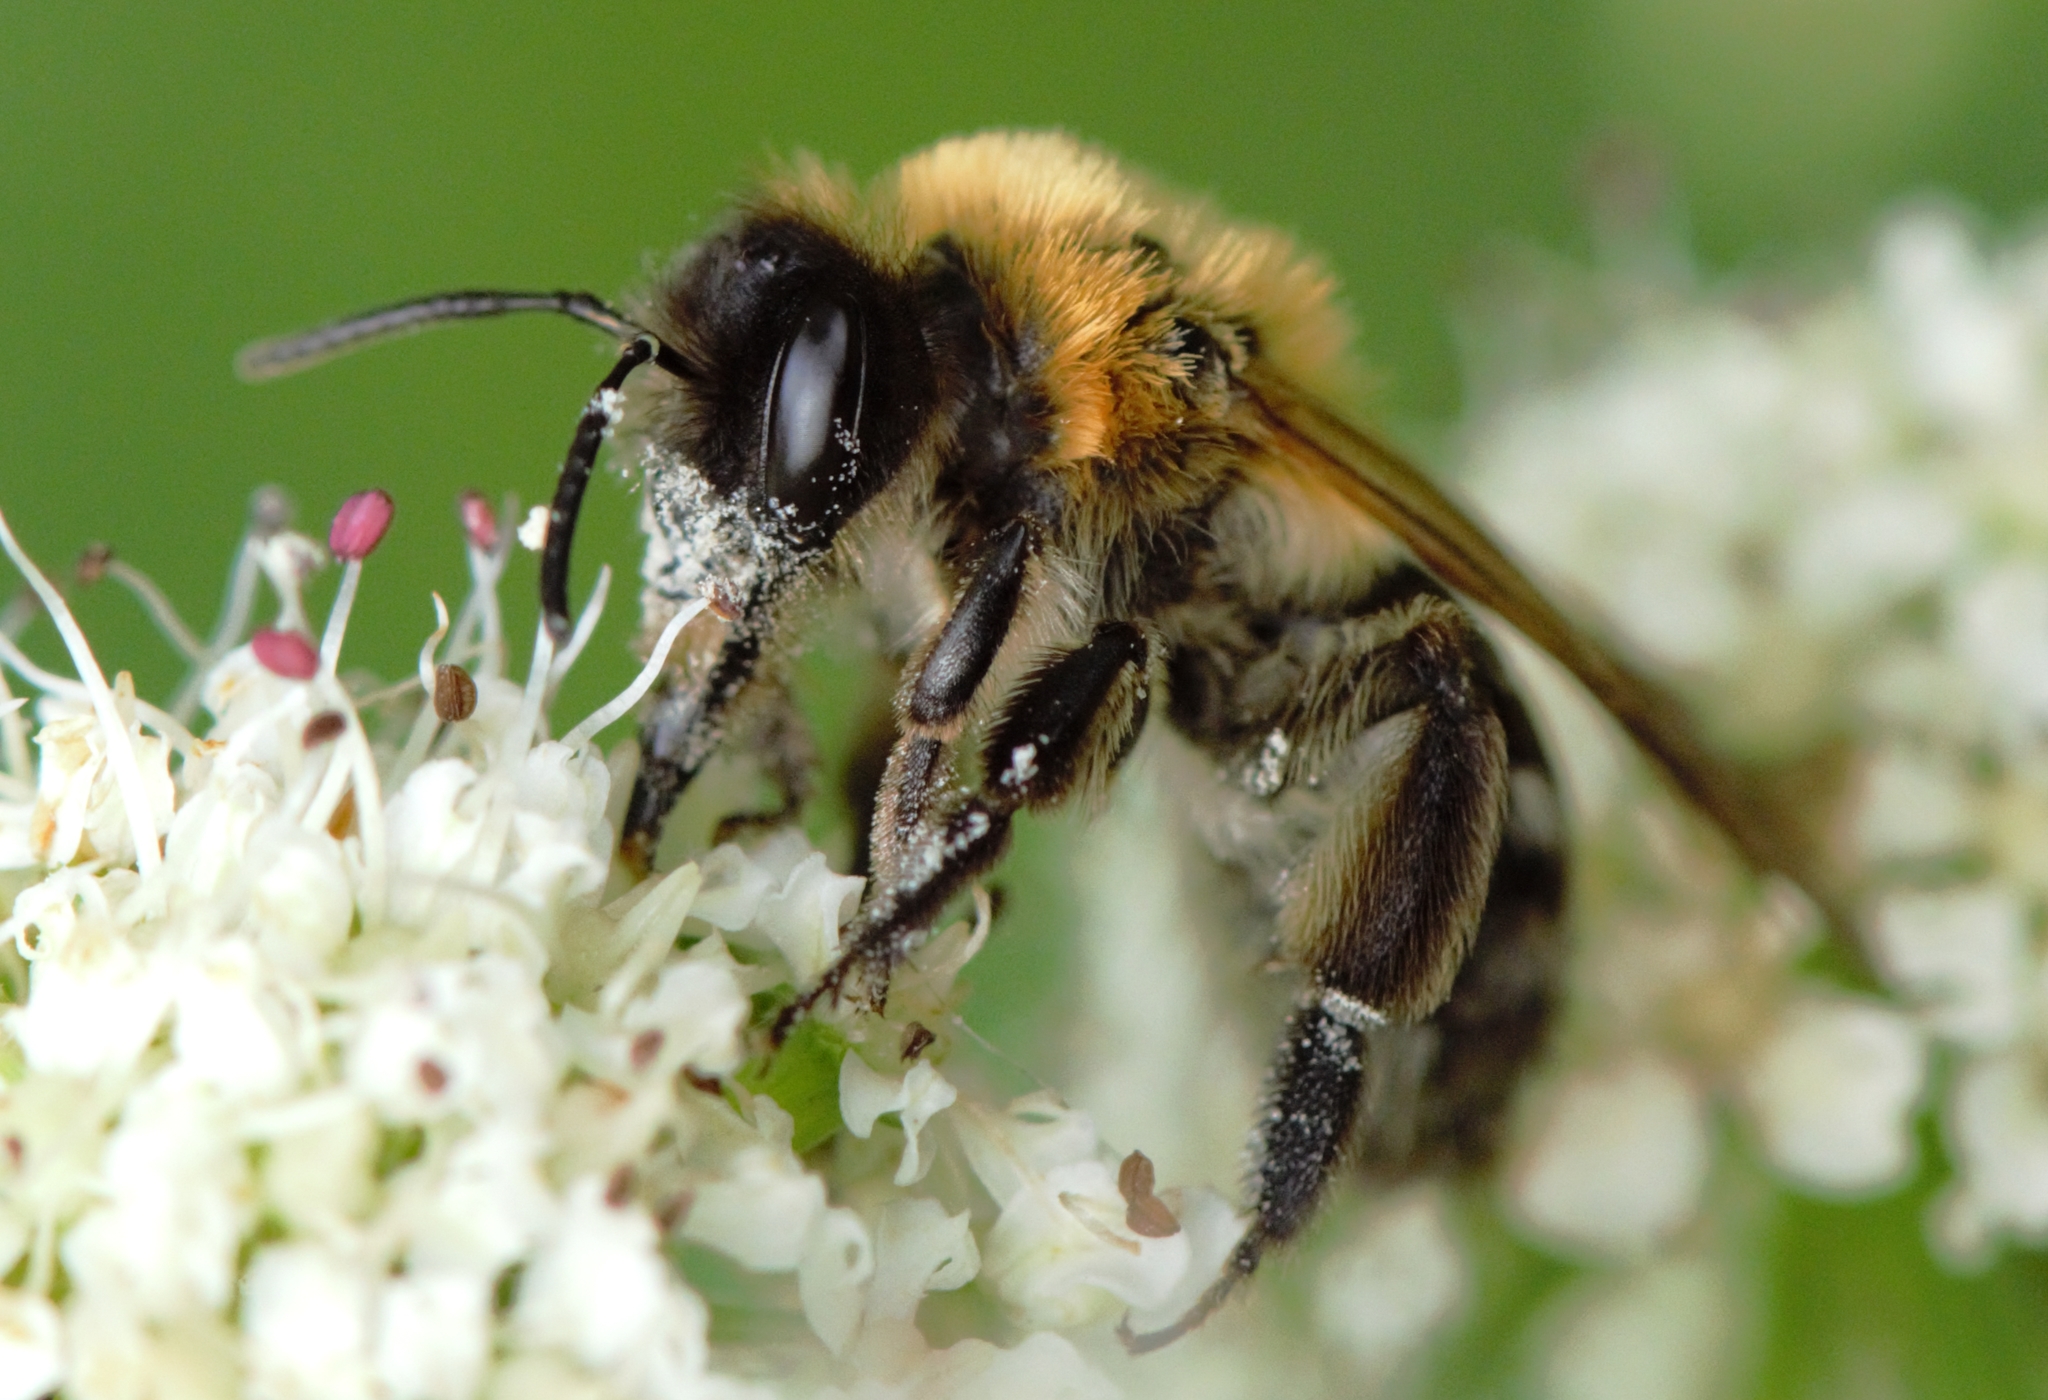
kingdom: Animalia
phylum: Arthropoda
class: Insecta
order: Hymenoptera
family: Andrenidae
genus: Andrena
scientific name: Andrena nitida
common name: Grey-patched mining bee
